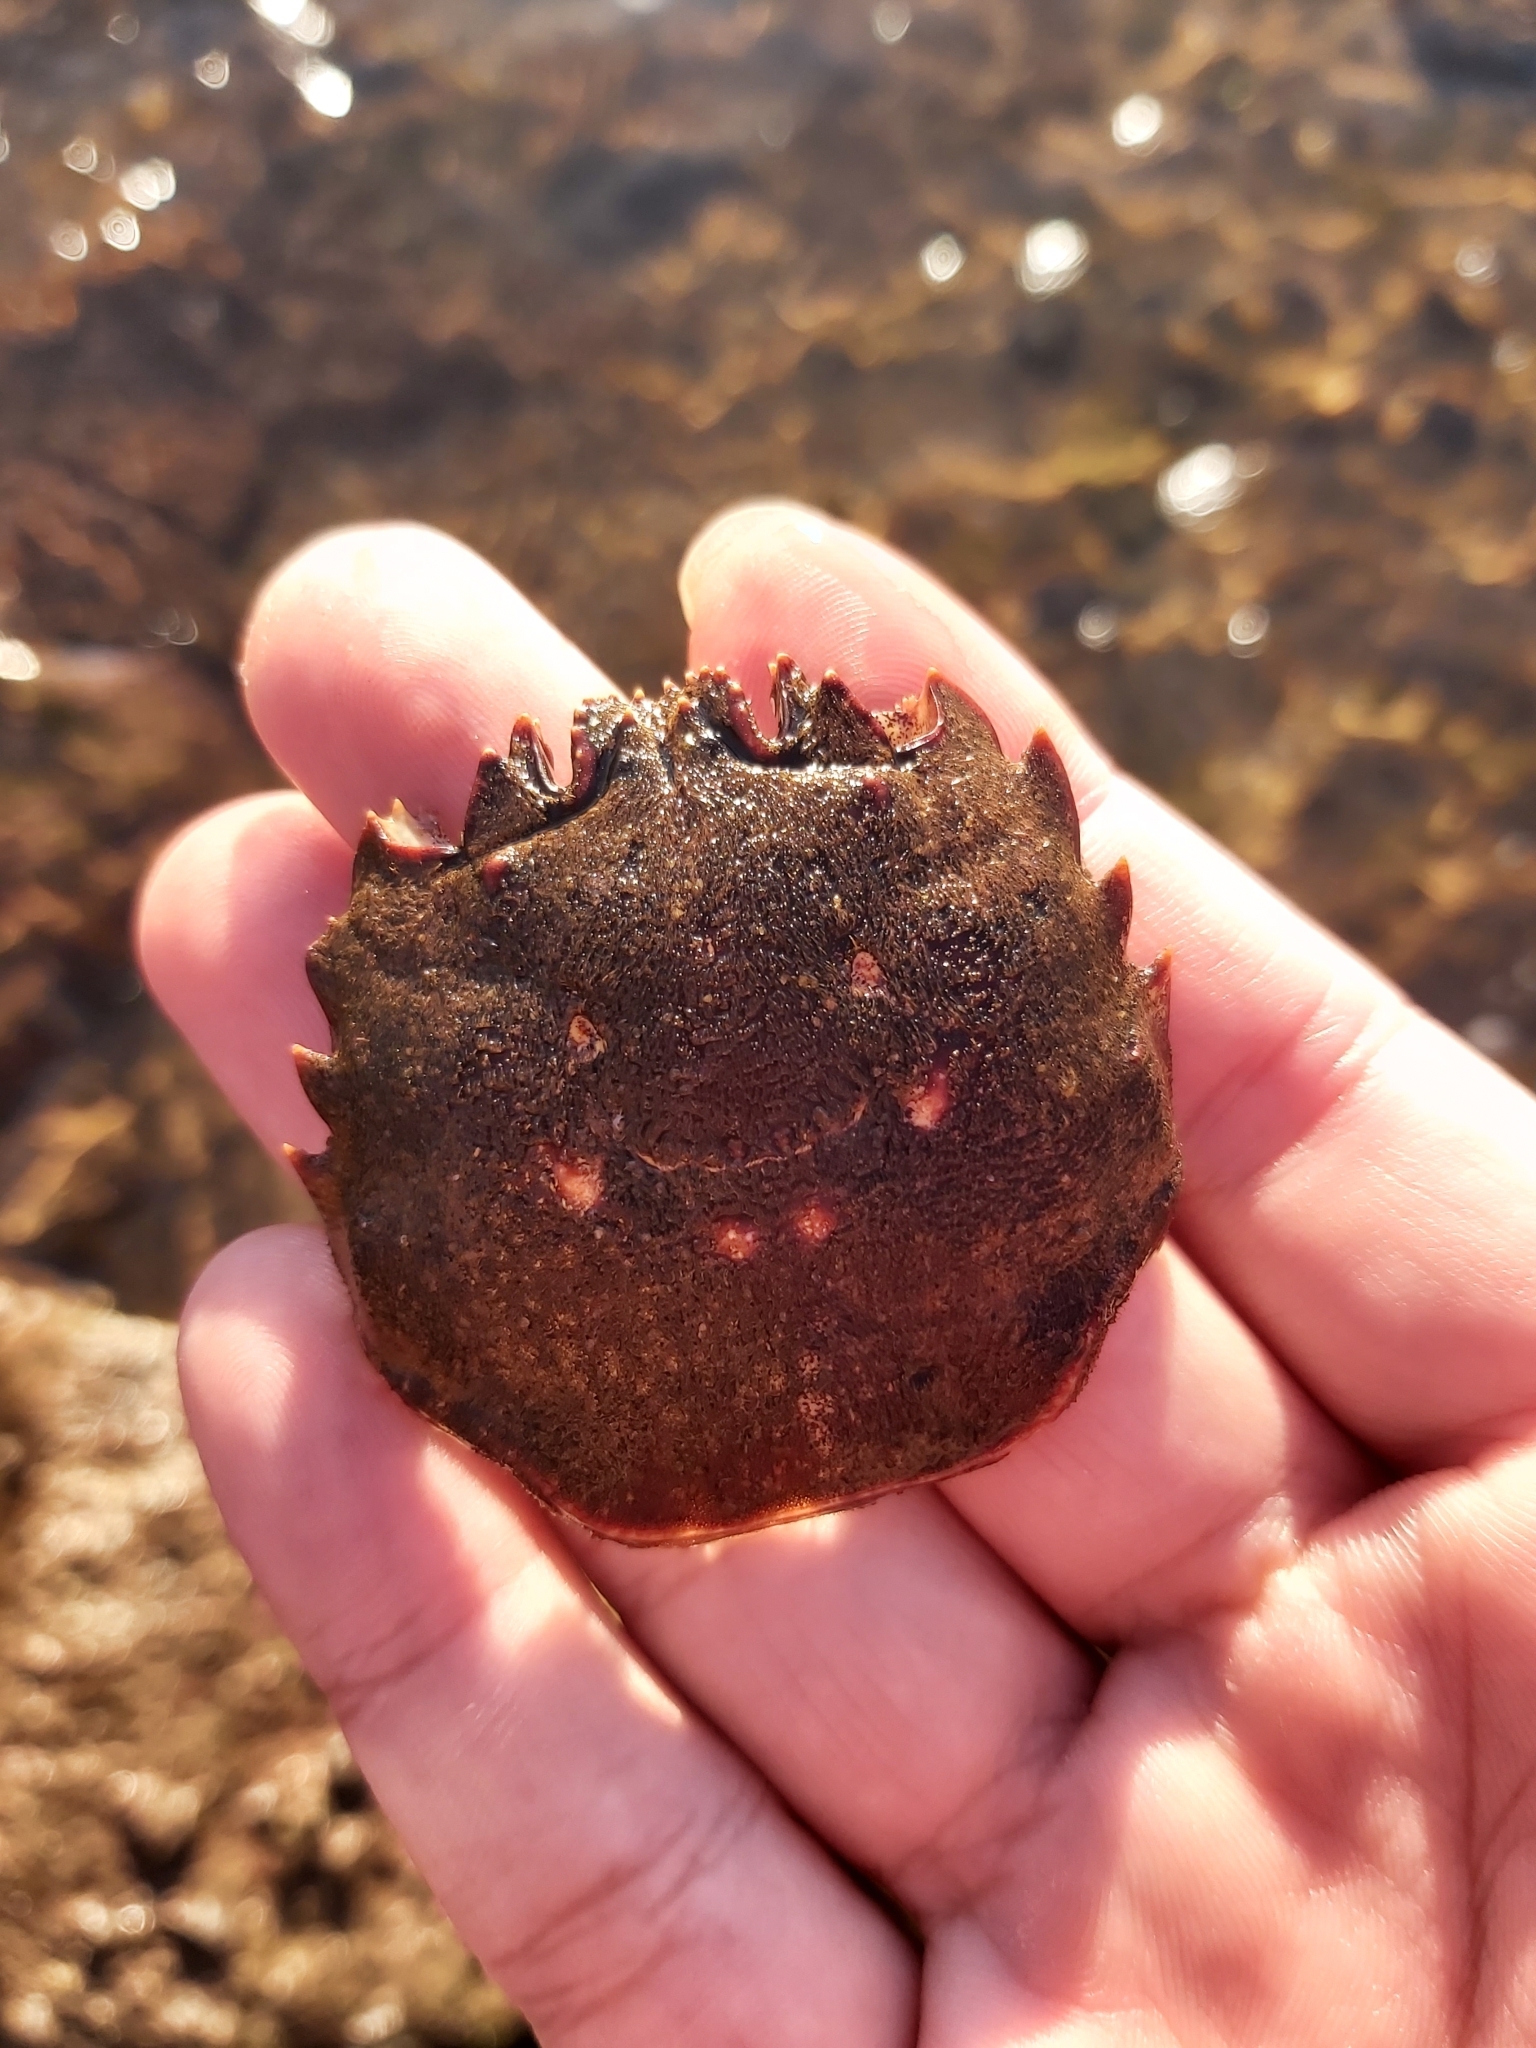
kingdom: Animalia
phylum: Arthropoda
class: Malacostraca
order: Decapoda
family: Plagusiidae
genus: Guinusia
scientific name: Guinusia chabrus
